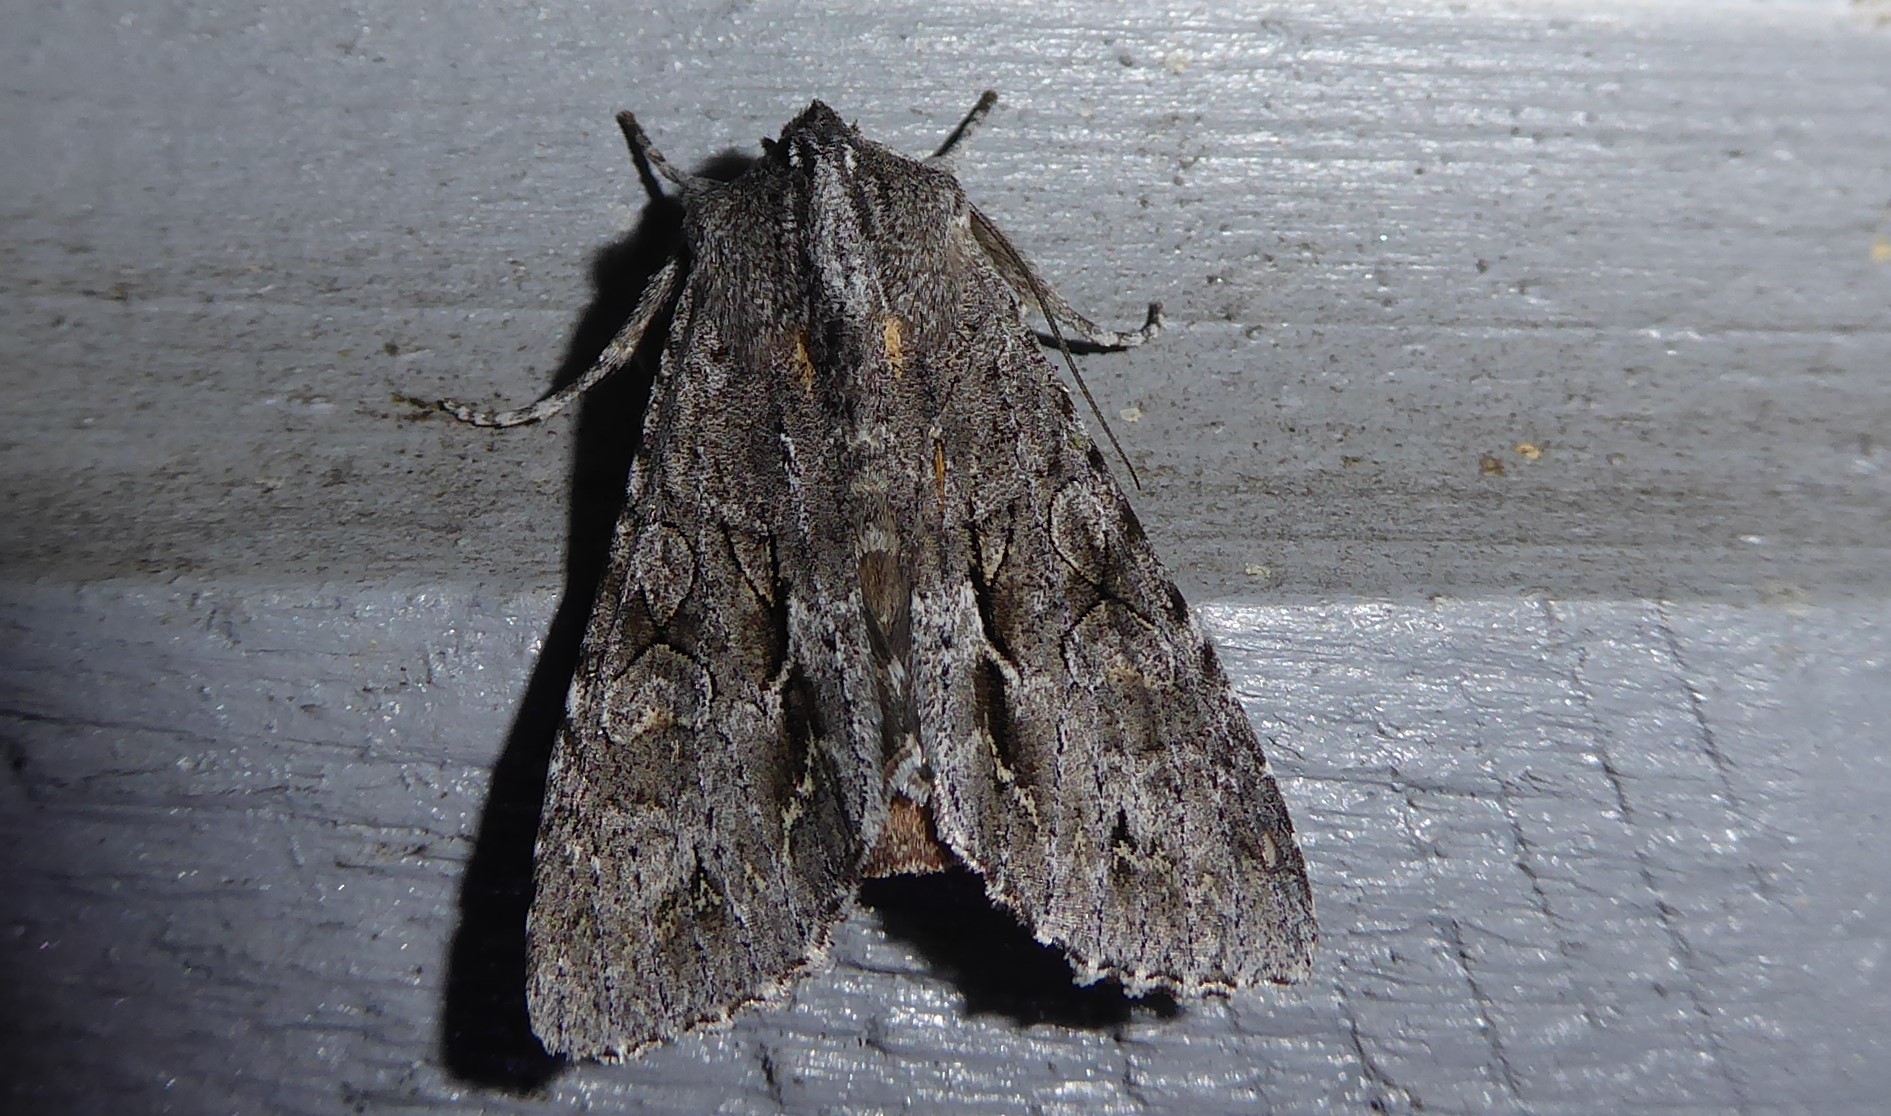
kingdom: Animalia
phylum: Arthropoda
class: Insecta
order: Lepidoptera
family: Noctuidae
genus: Ichneutica
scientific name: Ichneutica
